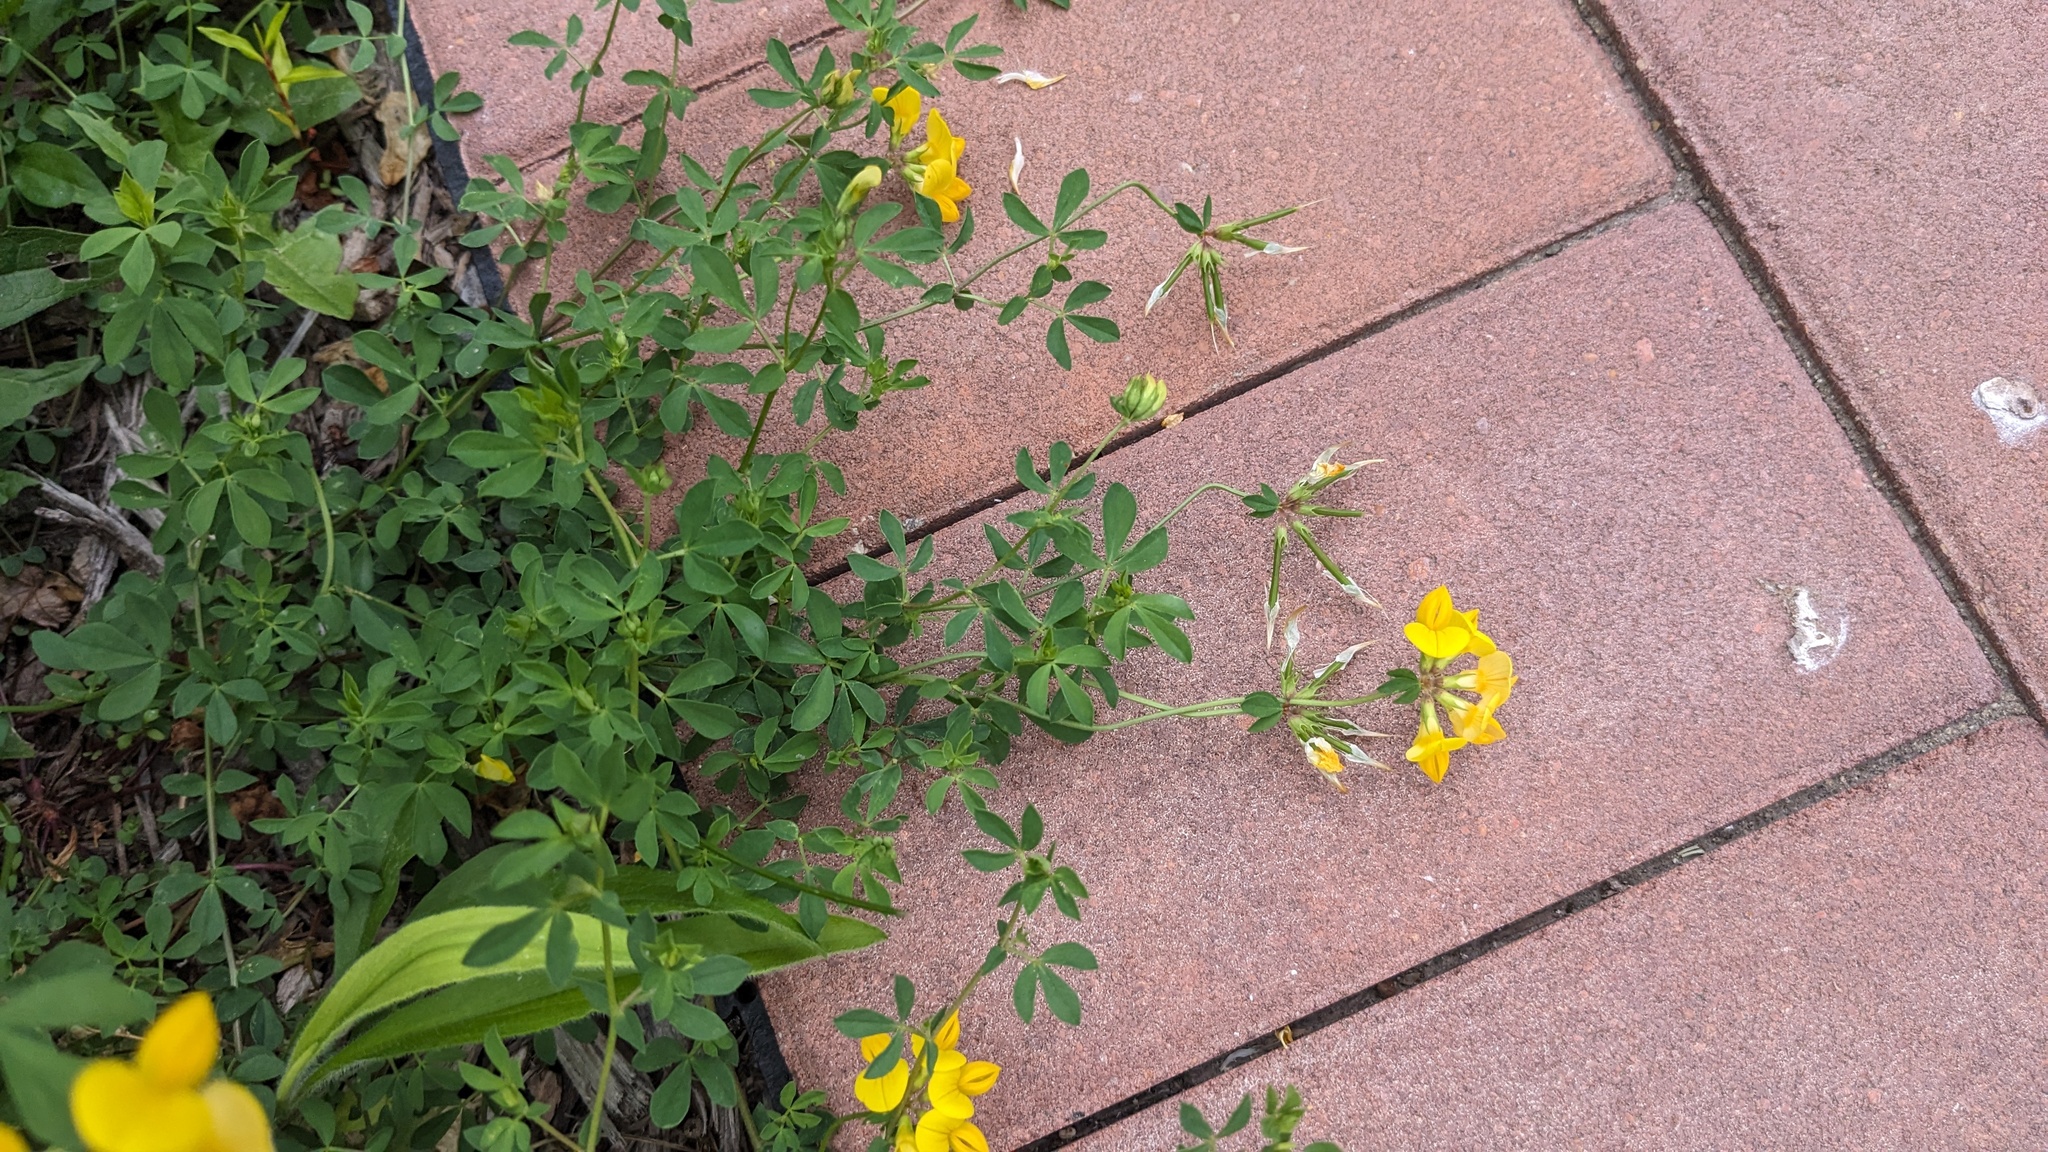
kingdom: Plantae
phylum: Tracheophyta
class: Magnoliopsida
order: Fabales
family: Fabaceae
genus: Lotus
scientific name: Lotus corniculatus
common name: Common bird's-foot-trefoil
